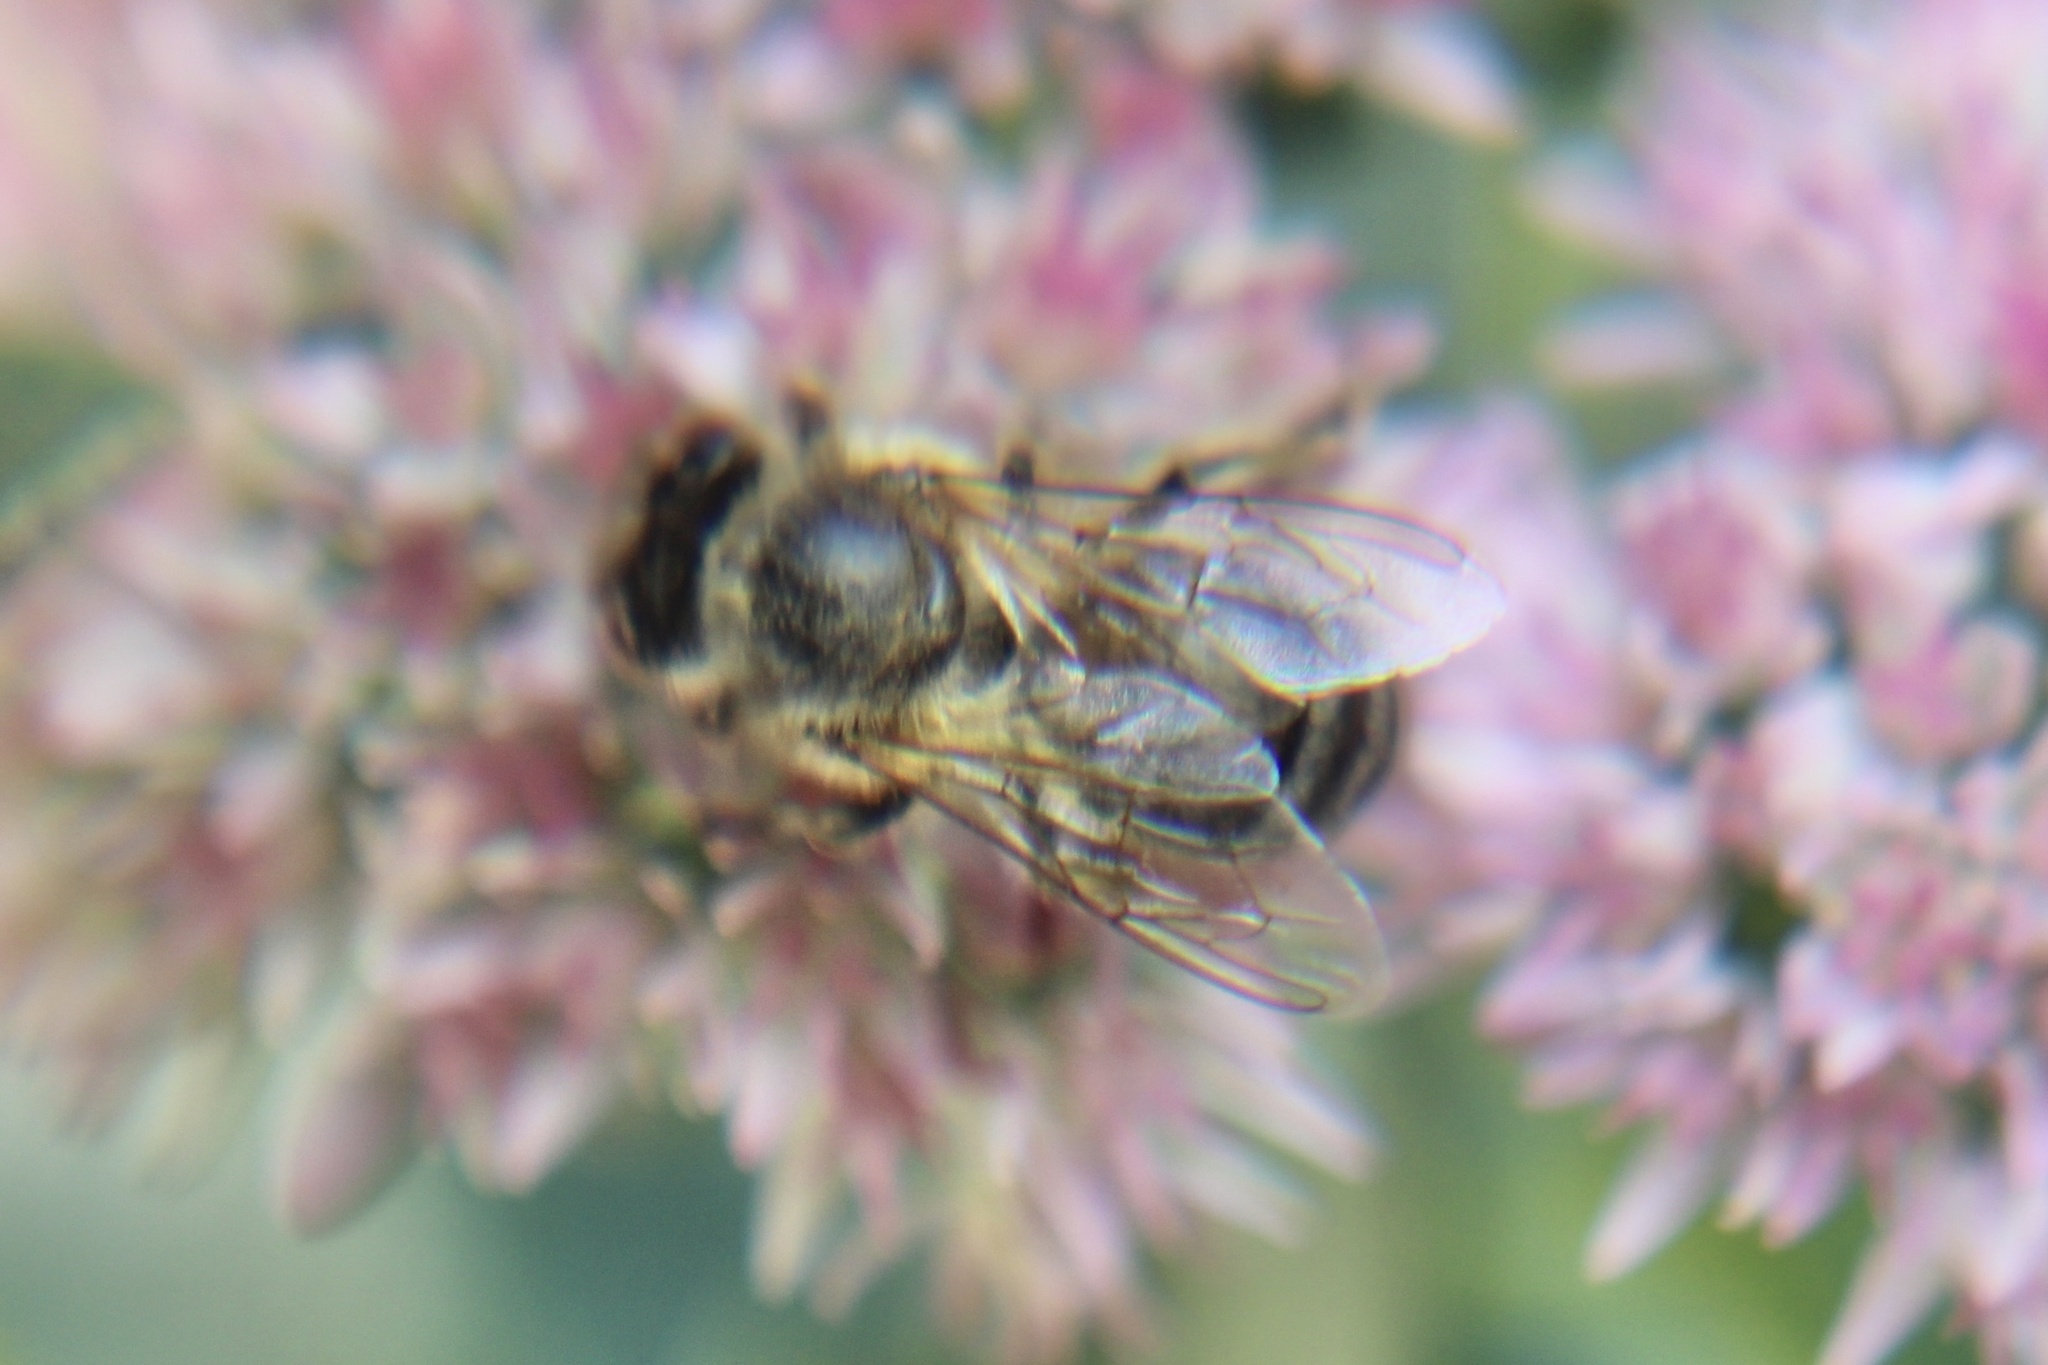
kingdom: Animalia
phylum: Arthropoda
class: Insecta
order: Hymenoptera
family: Apidae
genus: Apis
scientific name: Apis mellifera
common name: Honey bee
